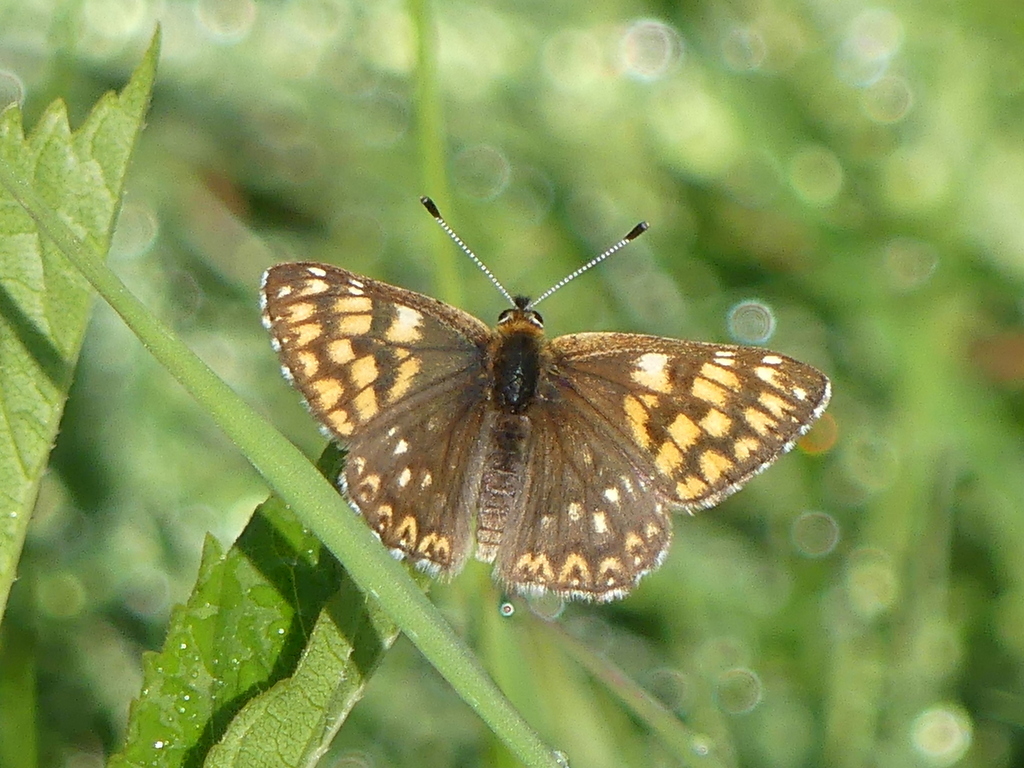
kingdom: Animalia
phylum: Arthropoda
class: Insecta
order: Lepidoptera
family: Riodinidae
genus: Hamearis
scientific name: Hamearis lucina
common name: Duke of burgundy fritillary
